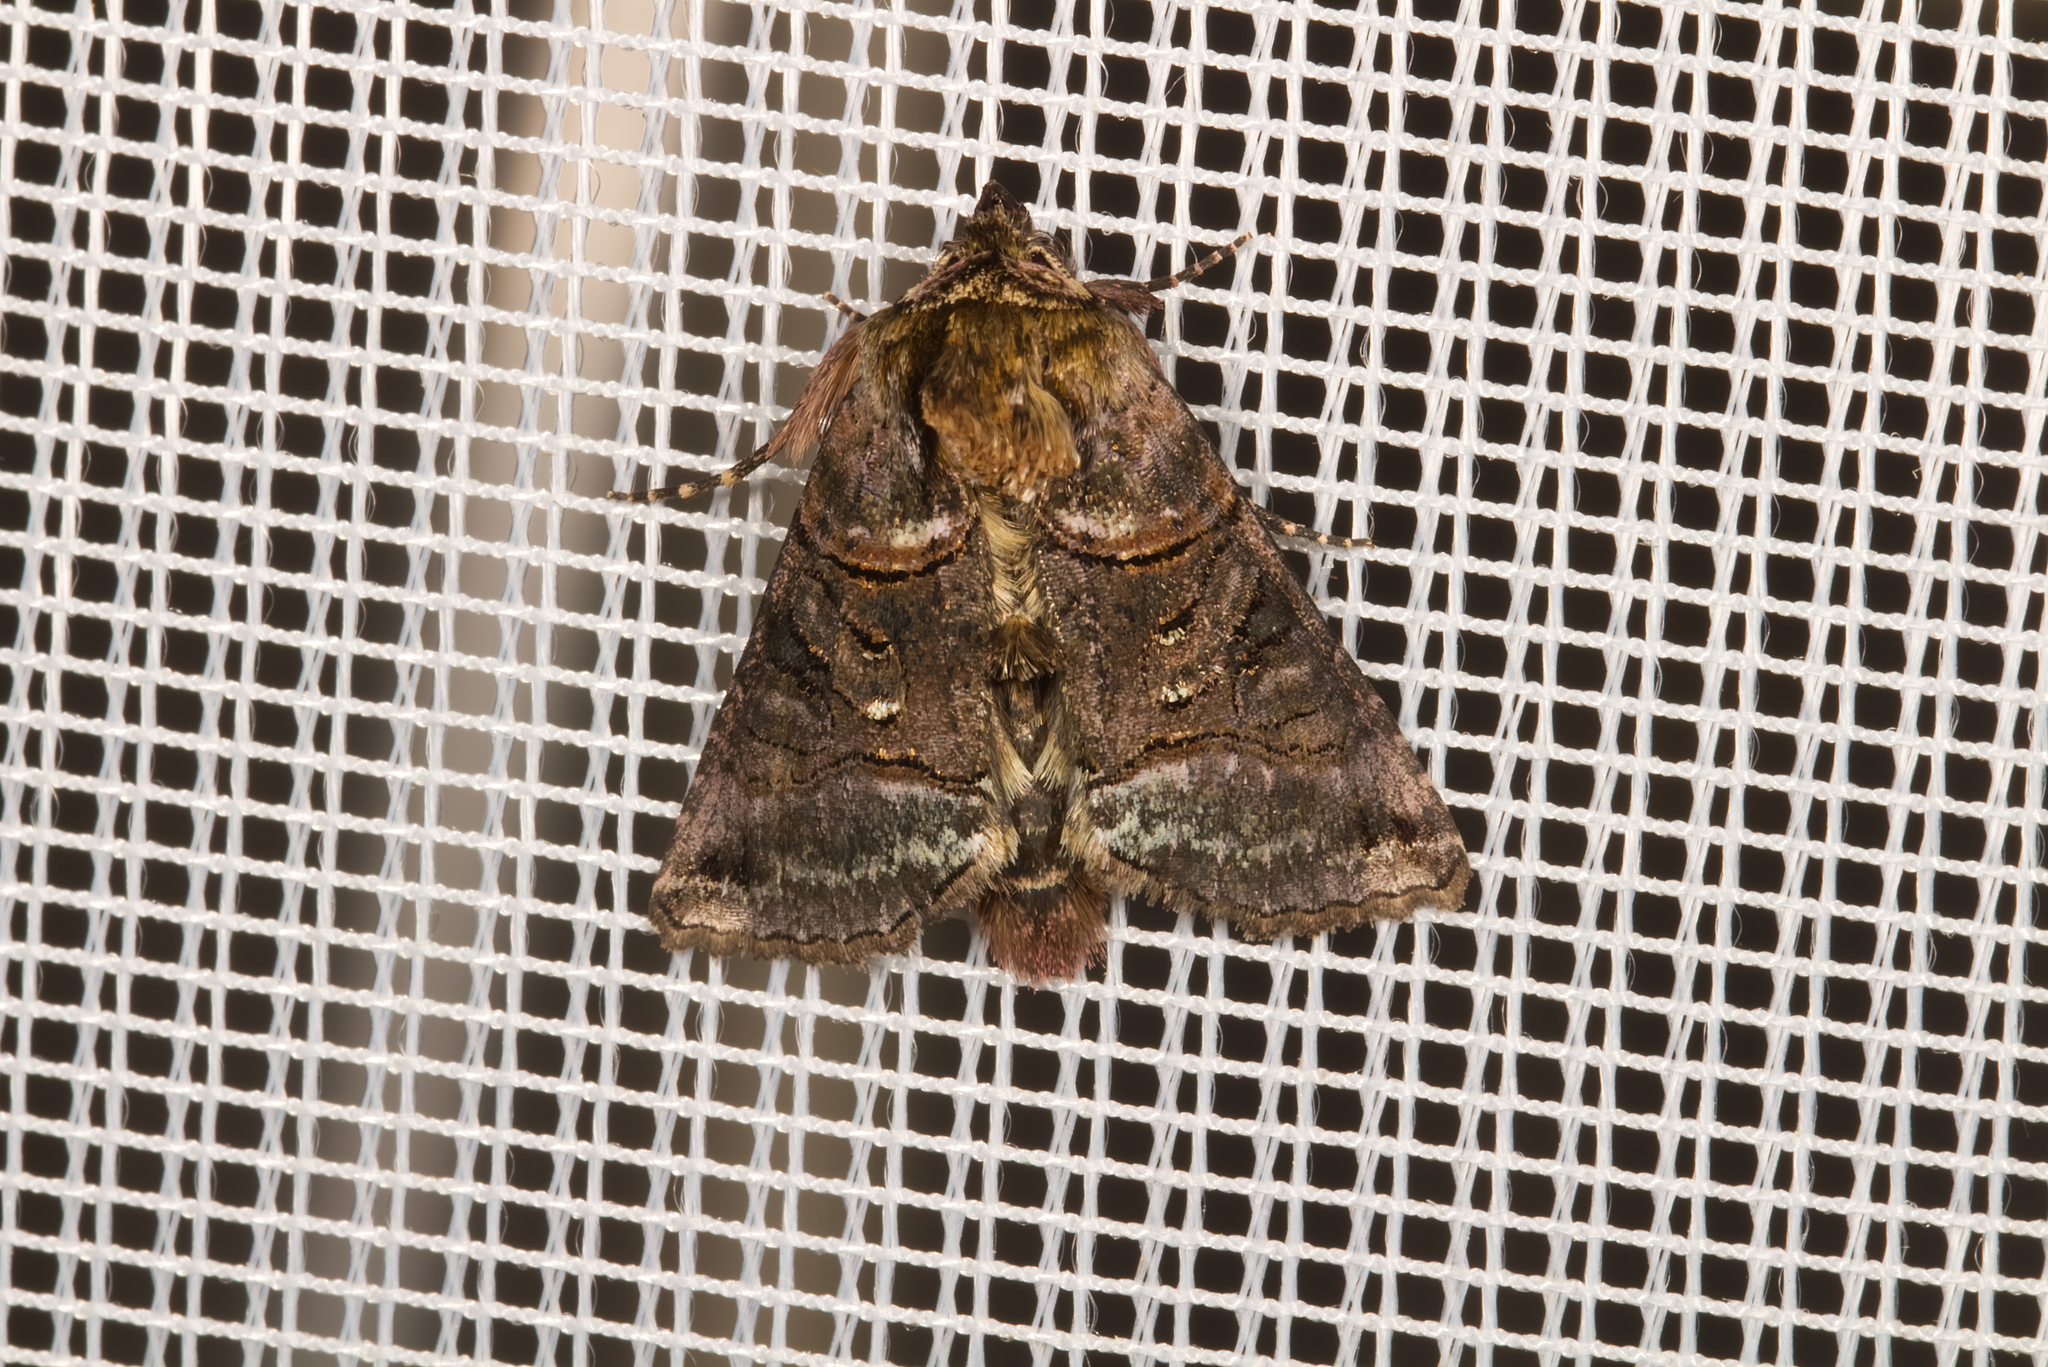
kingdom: Animalia
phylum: Arthropoda
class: Insecta
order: Lepidoptera
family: Noctuidae
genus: Abrostola
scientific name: Abrostola tripartita
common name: Spectacle
